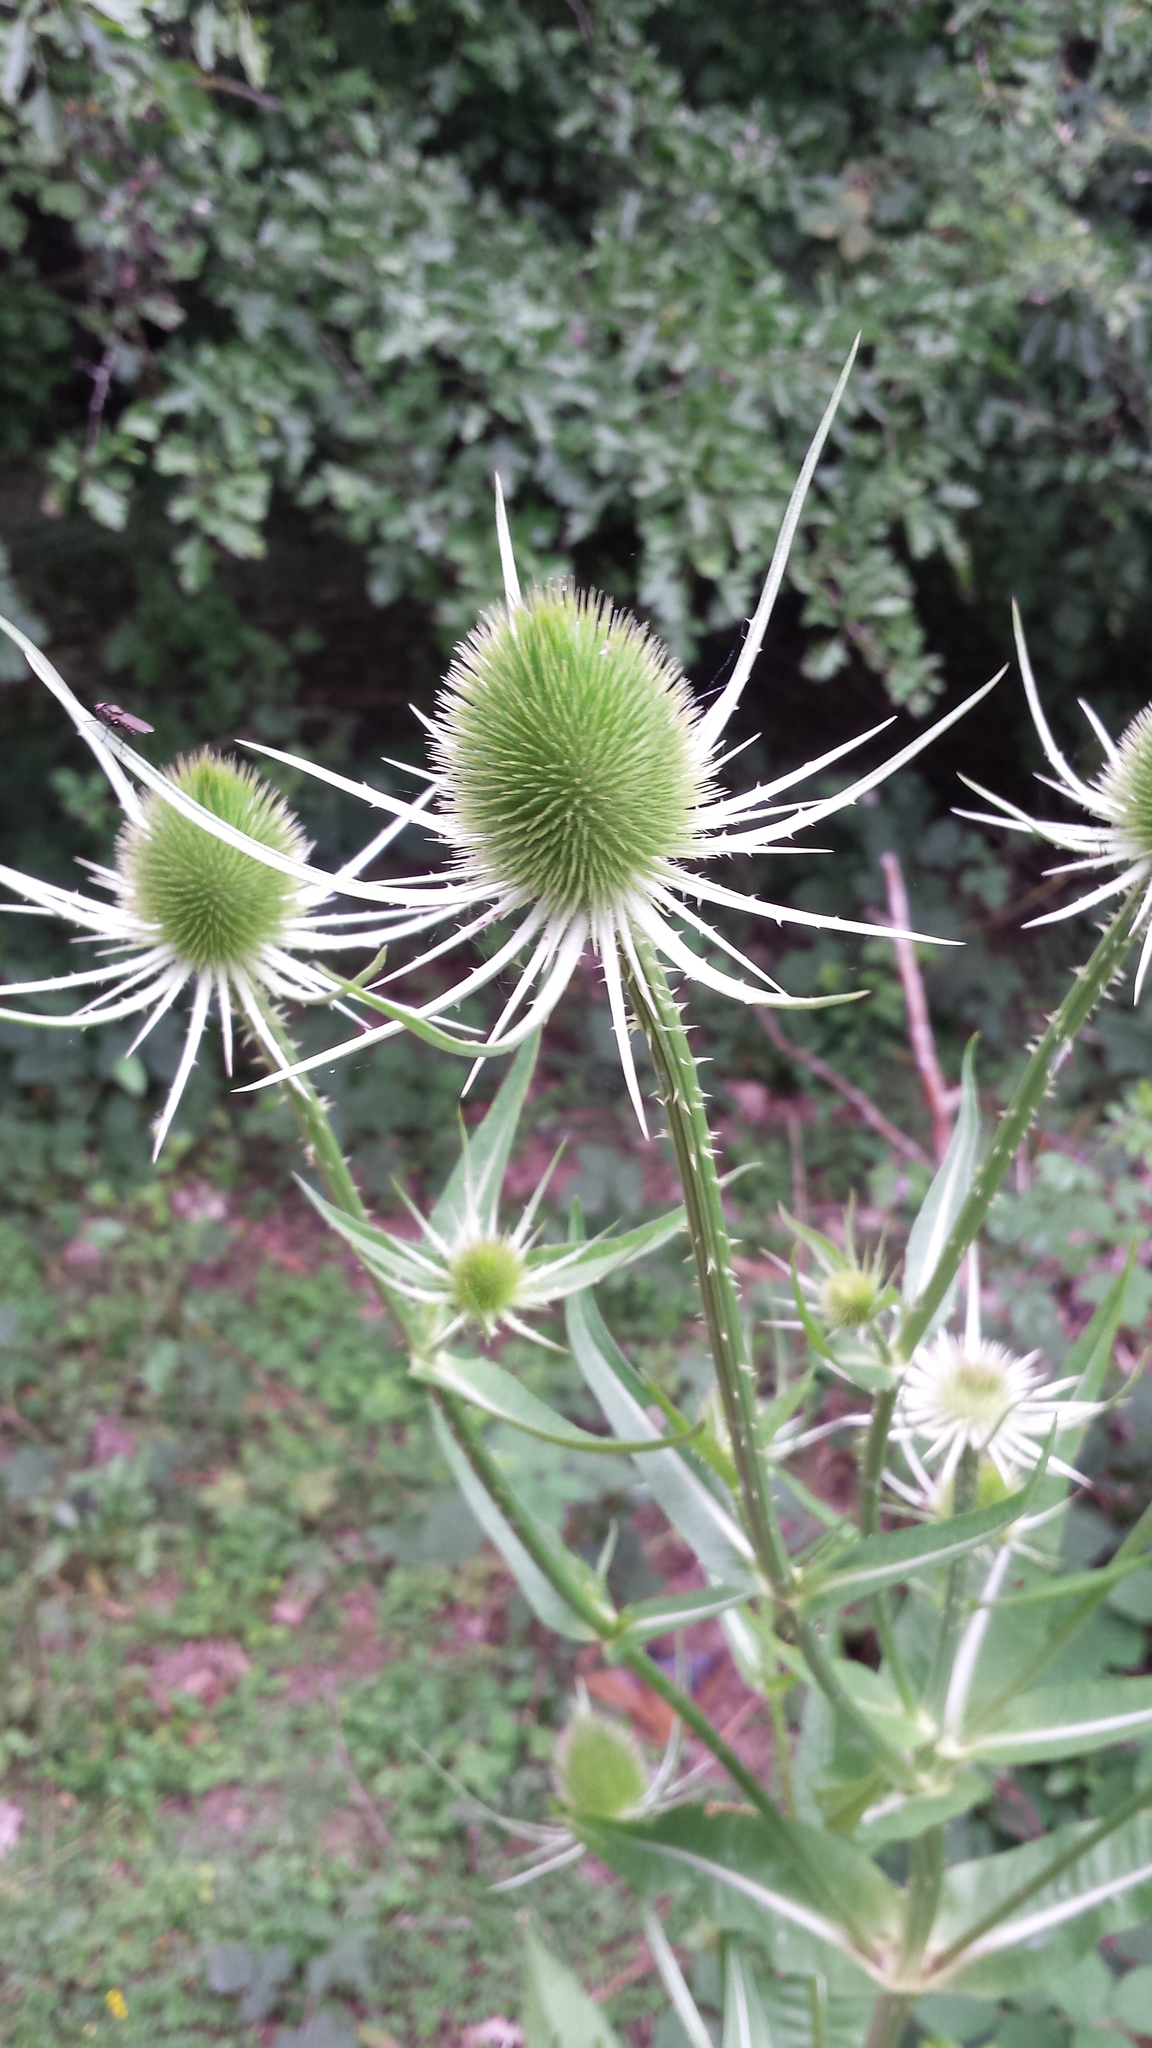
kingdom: Plantae
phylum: Tracheophyta
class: Magnoliopsida
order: Dipsacales
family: Caprifoliaceae
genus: Dipsacus
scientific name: Dipsacus fullonum
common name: Teasel
